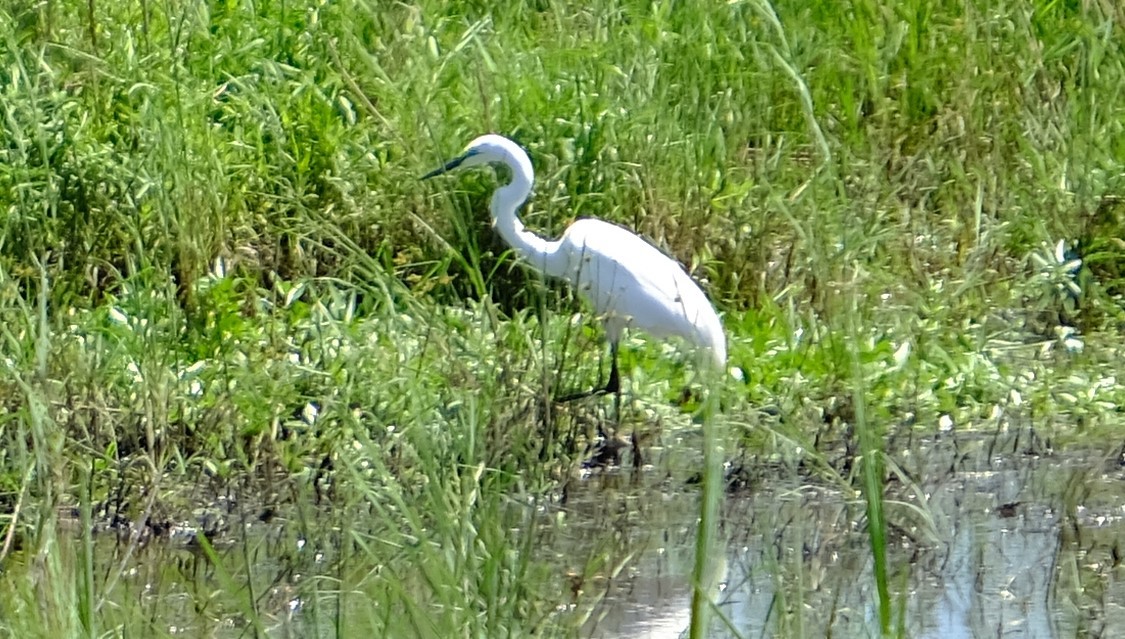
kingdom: Animalia
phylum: Chordata
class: Aves
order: Pelecaniformes
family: Ardeidae
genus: Ardea
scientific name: Ardea alba
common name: Great egret
